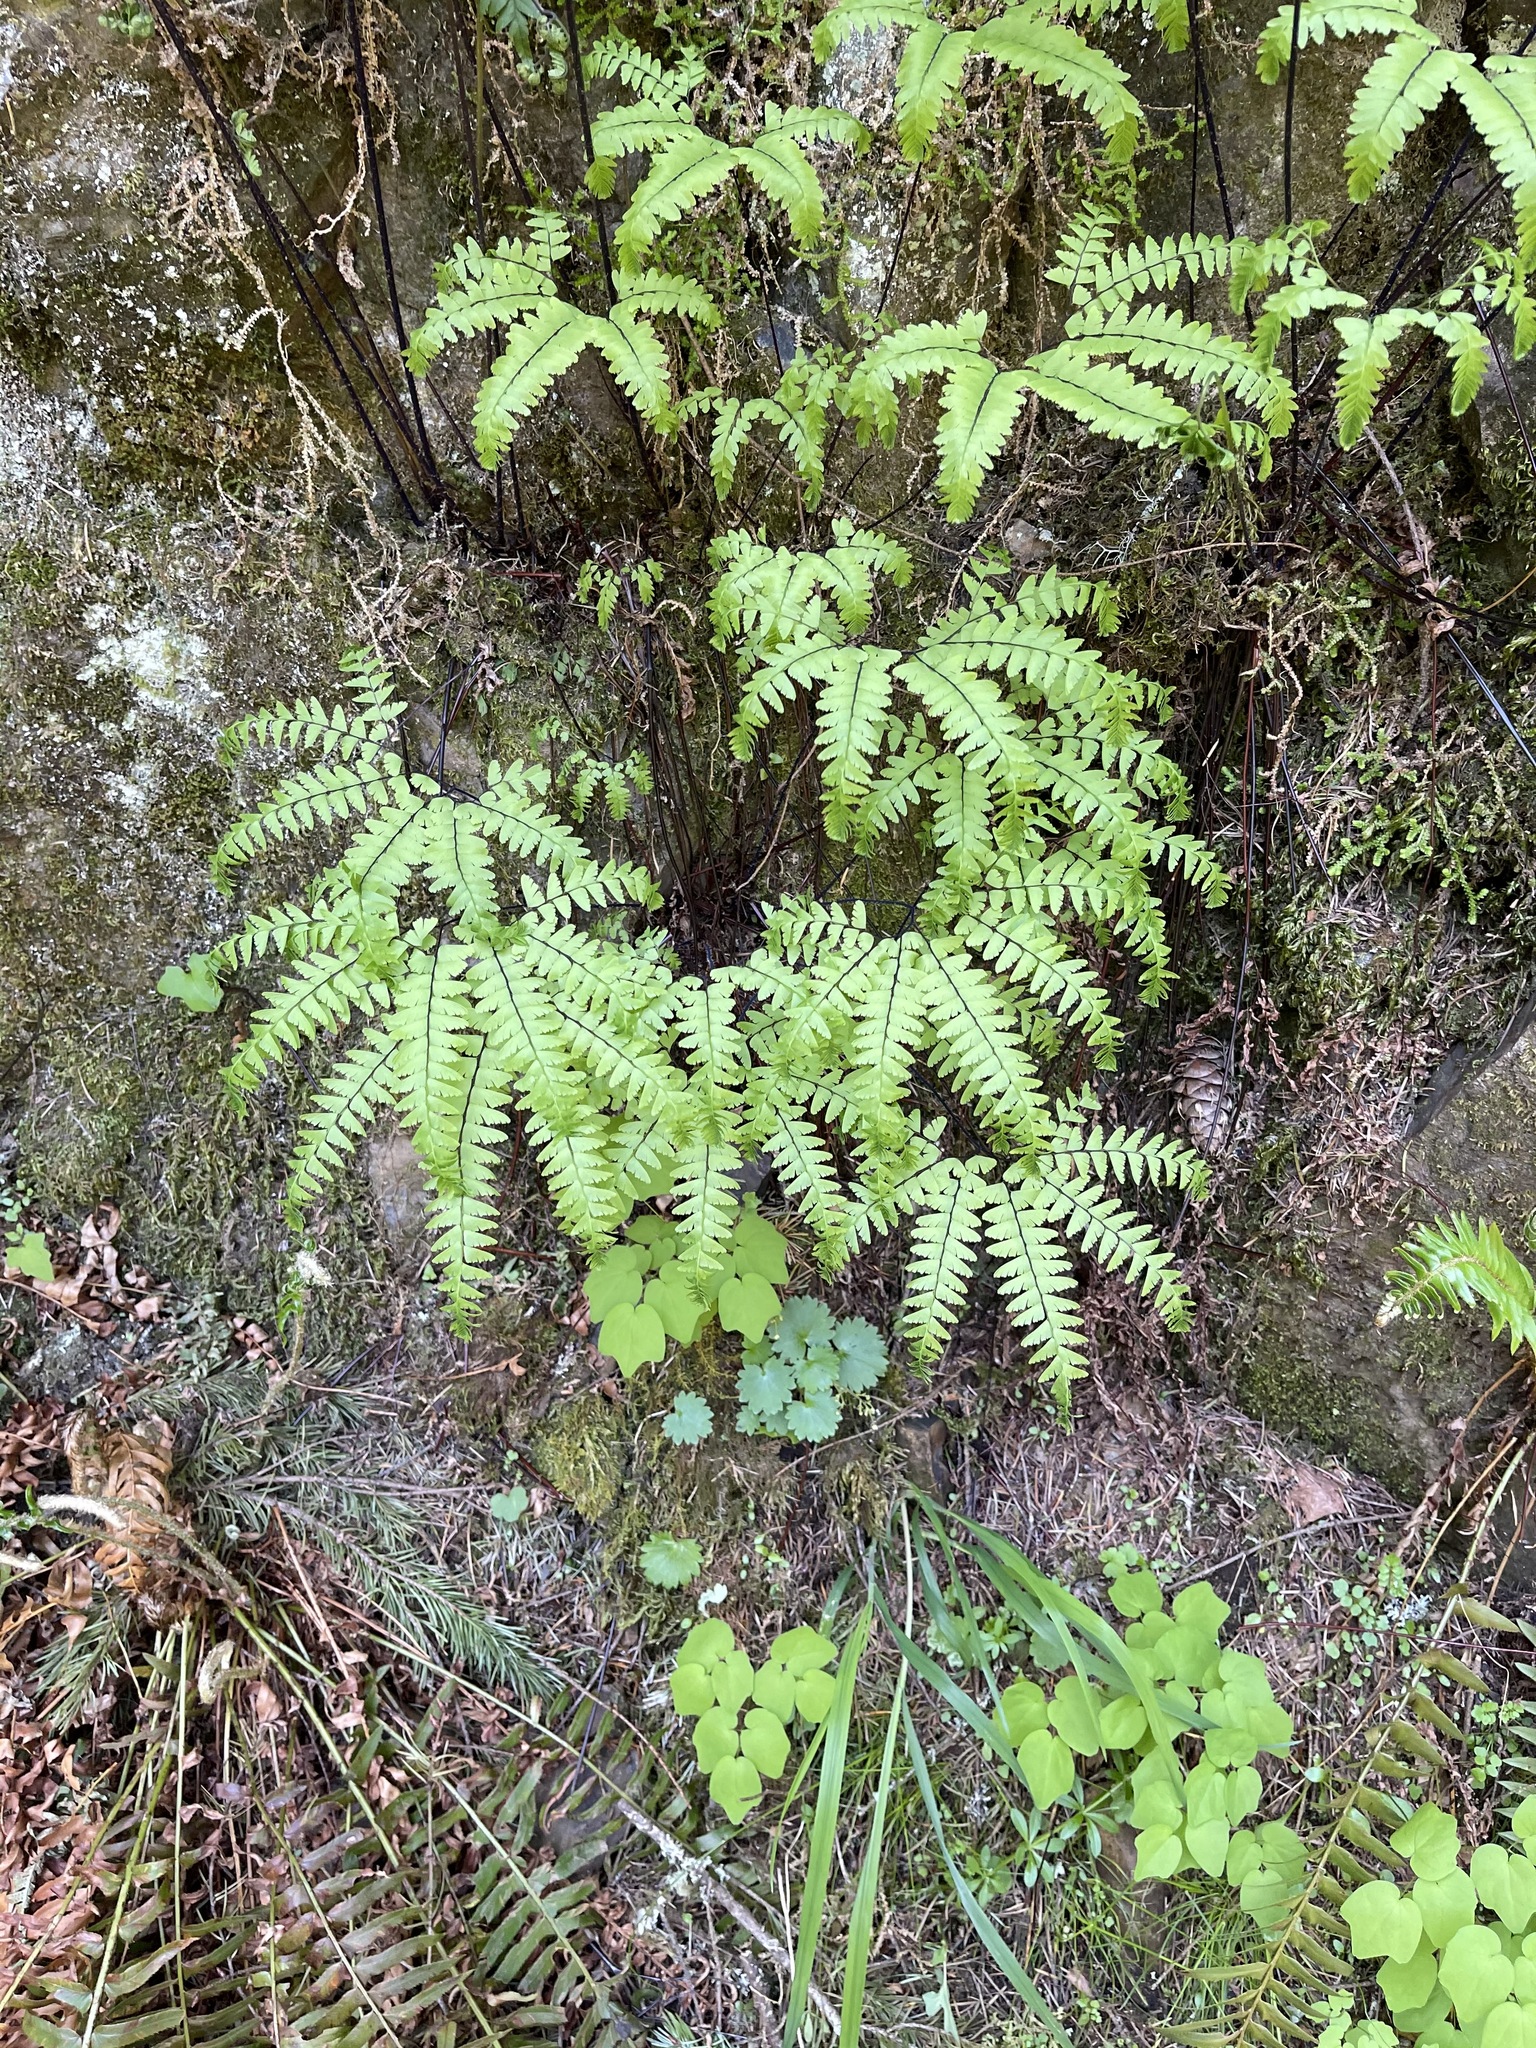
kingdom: Plantae
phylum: Tracheophyta
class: Polypodiopsida
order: Polypodiales
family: Pteridaceae
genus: Adiantum
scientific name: Adiantum aleuticum
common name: Aleutian maidenhair fern
